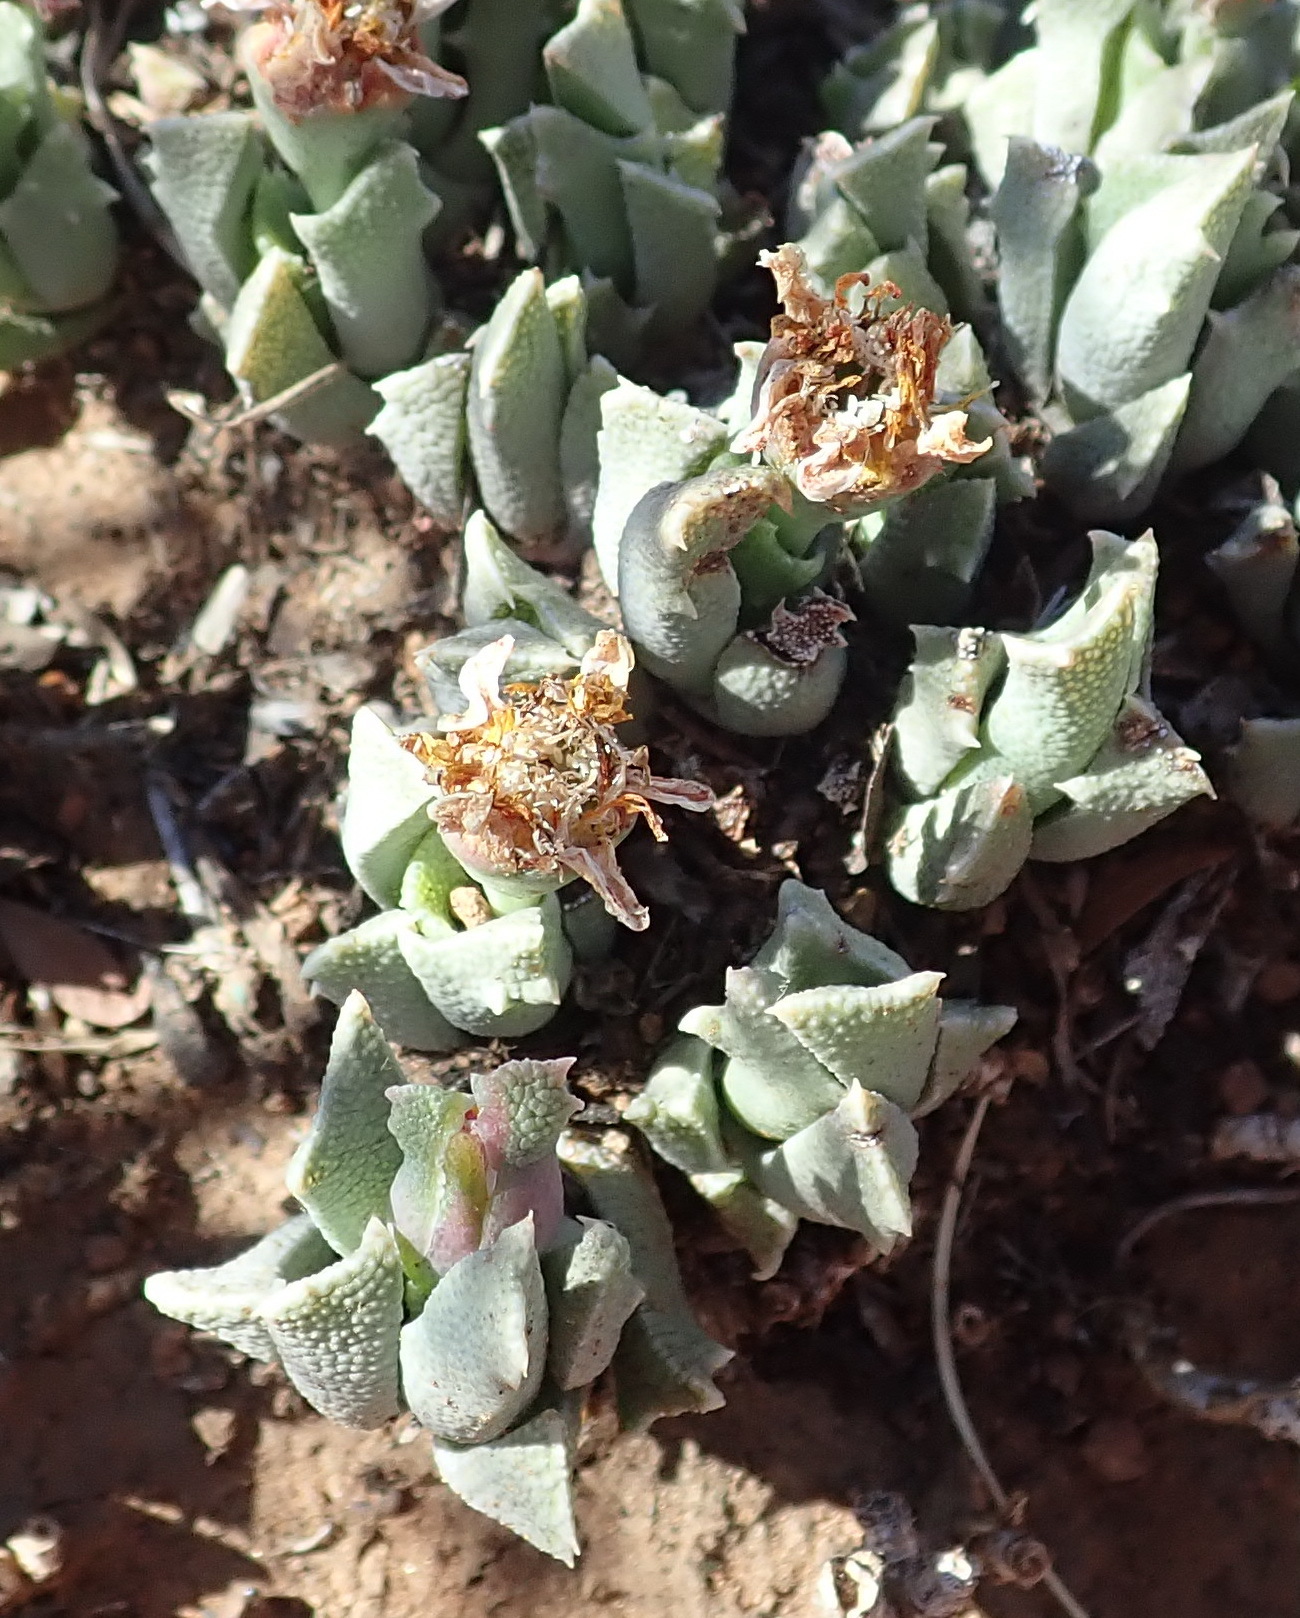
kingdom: Plantae
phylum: Tracheophyta
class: Magnoliopsida
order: Caryophyllales
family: Aizoaceae
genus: Dracophilus
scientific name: Dracophilus Chasmatophyllum musculinum
